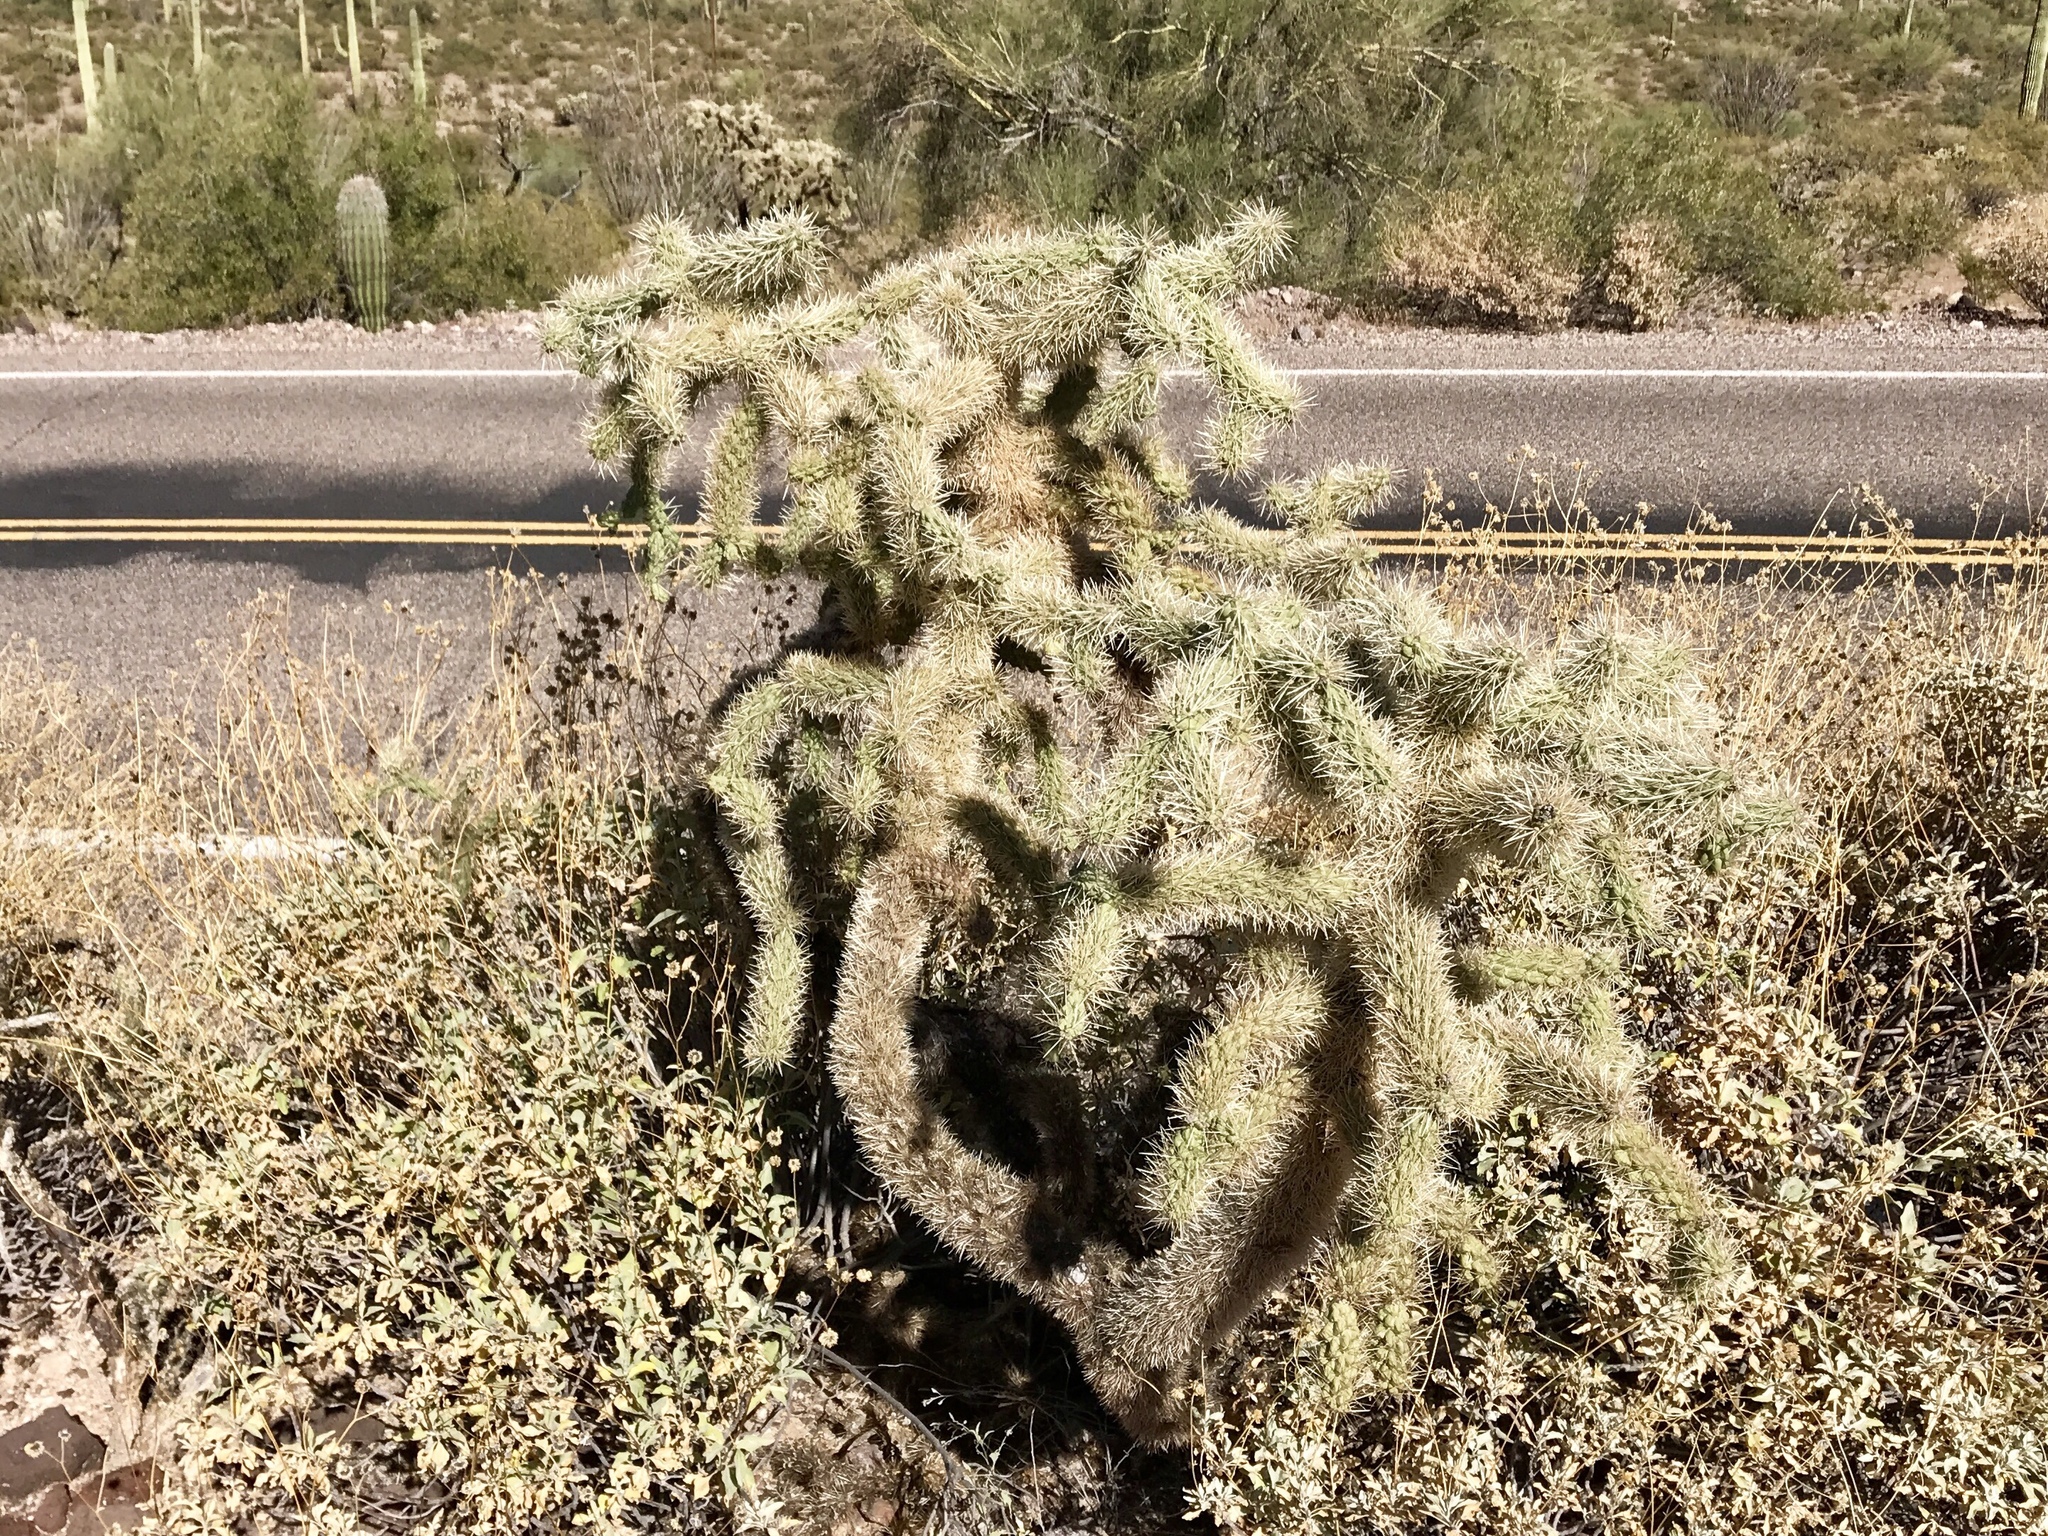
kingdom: Plantae
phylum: Tracheophyta
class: Magnoliopsida
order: Caryophyllales
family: Cactaceae
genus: Cylindropuntia
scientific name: Cylindropuntia fulgida
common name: Jumping cholla
